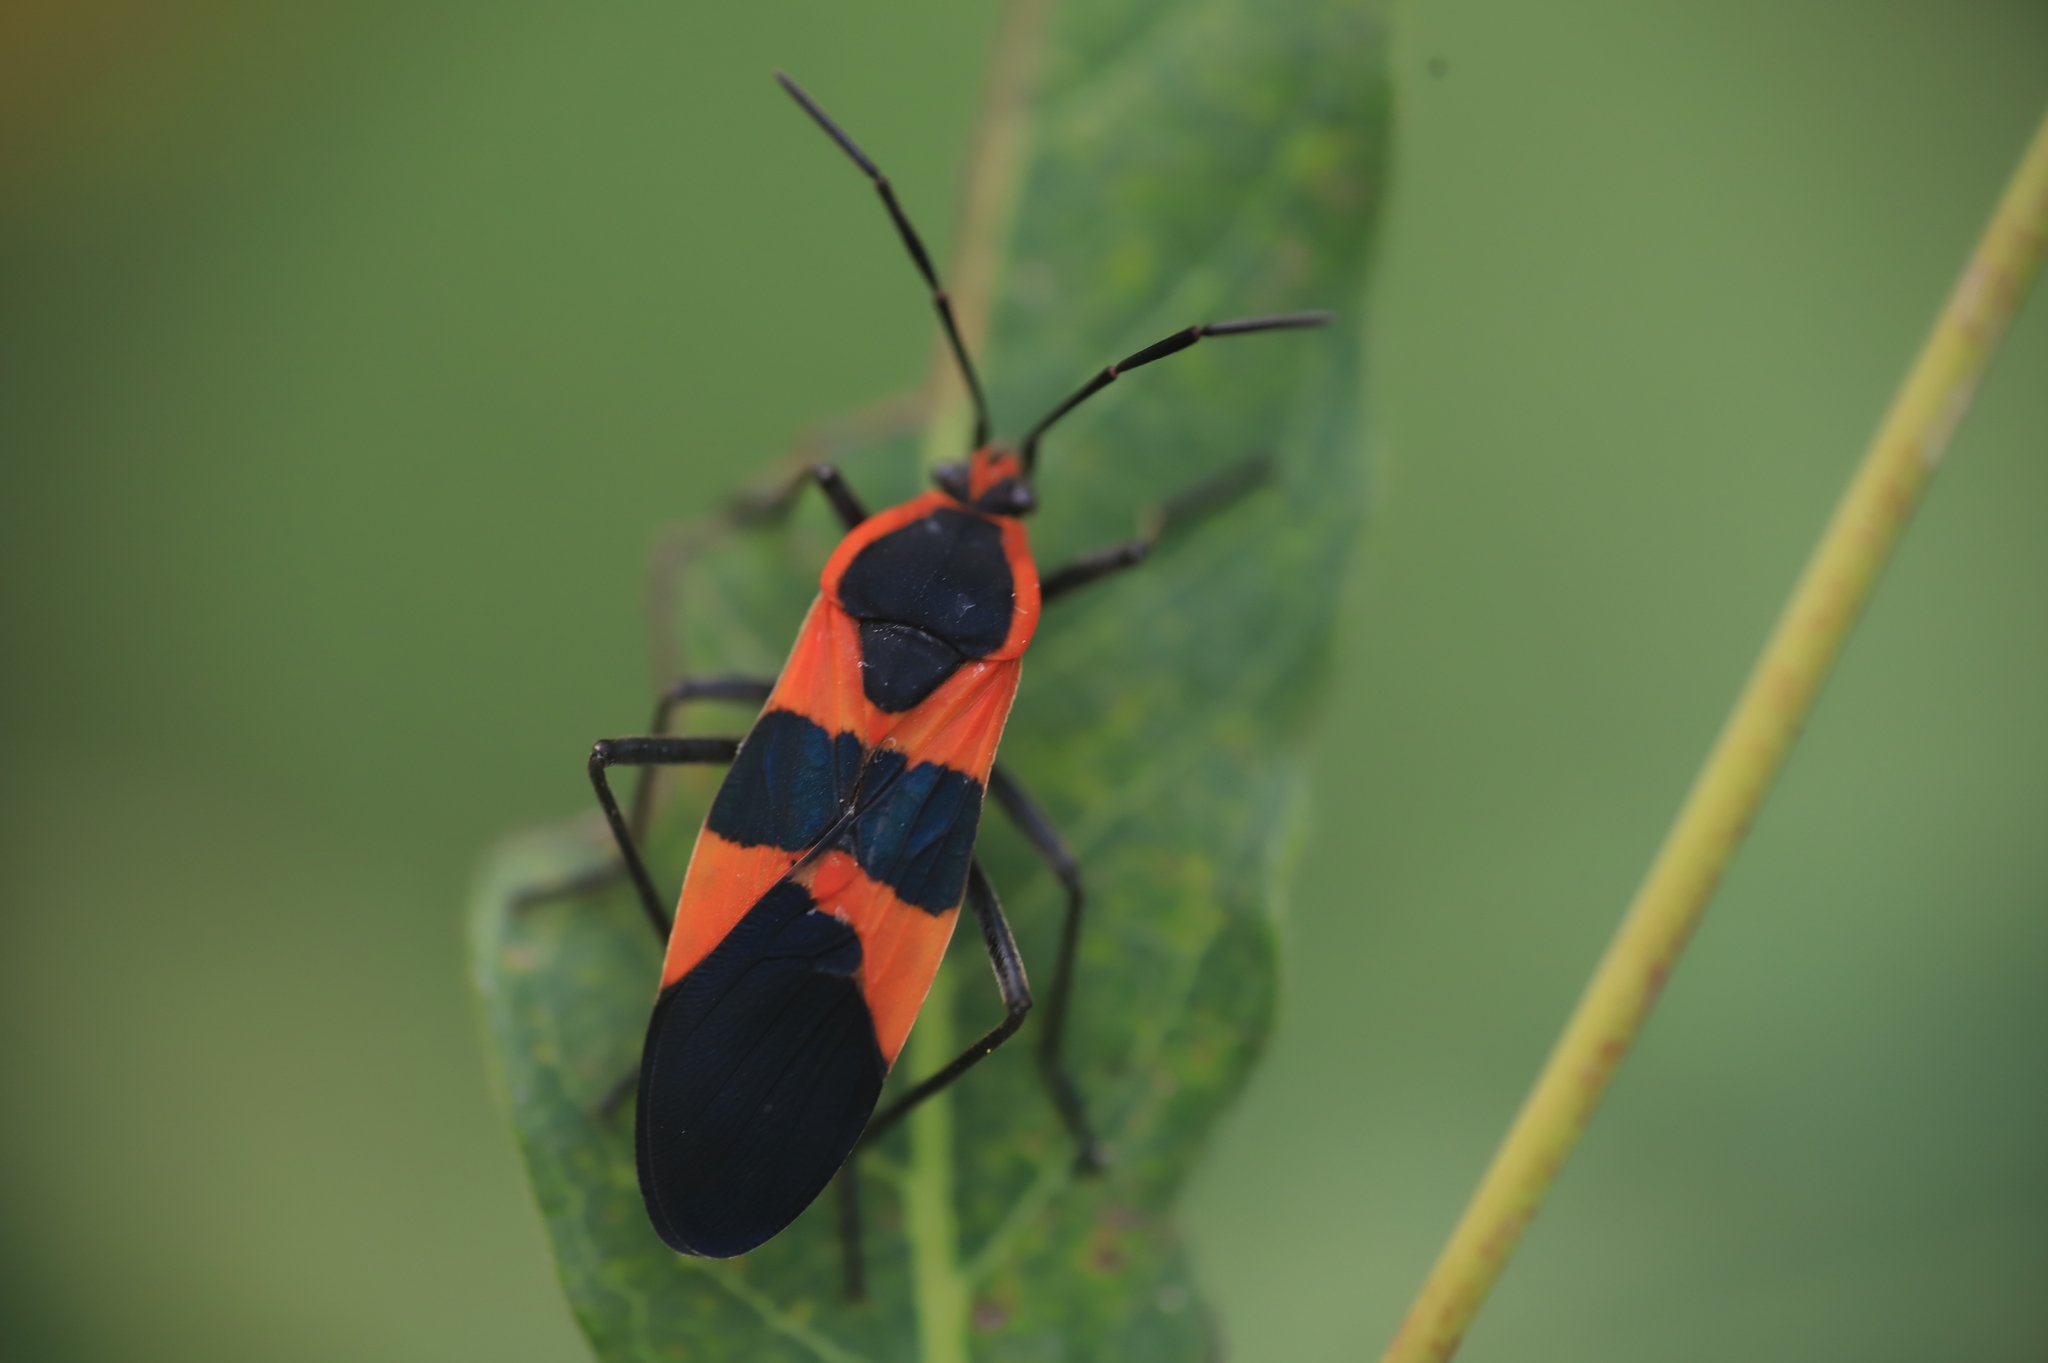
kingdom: Animalia
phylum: Arthropoda
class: Insecta
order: Hemiptera
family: Lygaeidae
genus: Oncopeltus
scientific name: Oncopeltus fasciatus
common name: Large milkweed bug
